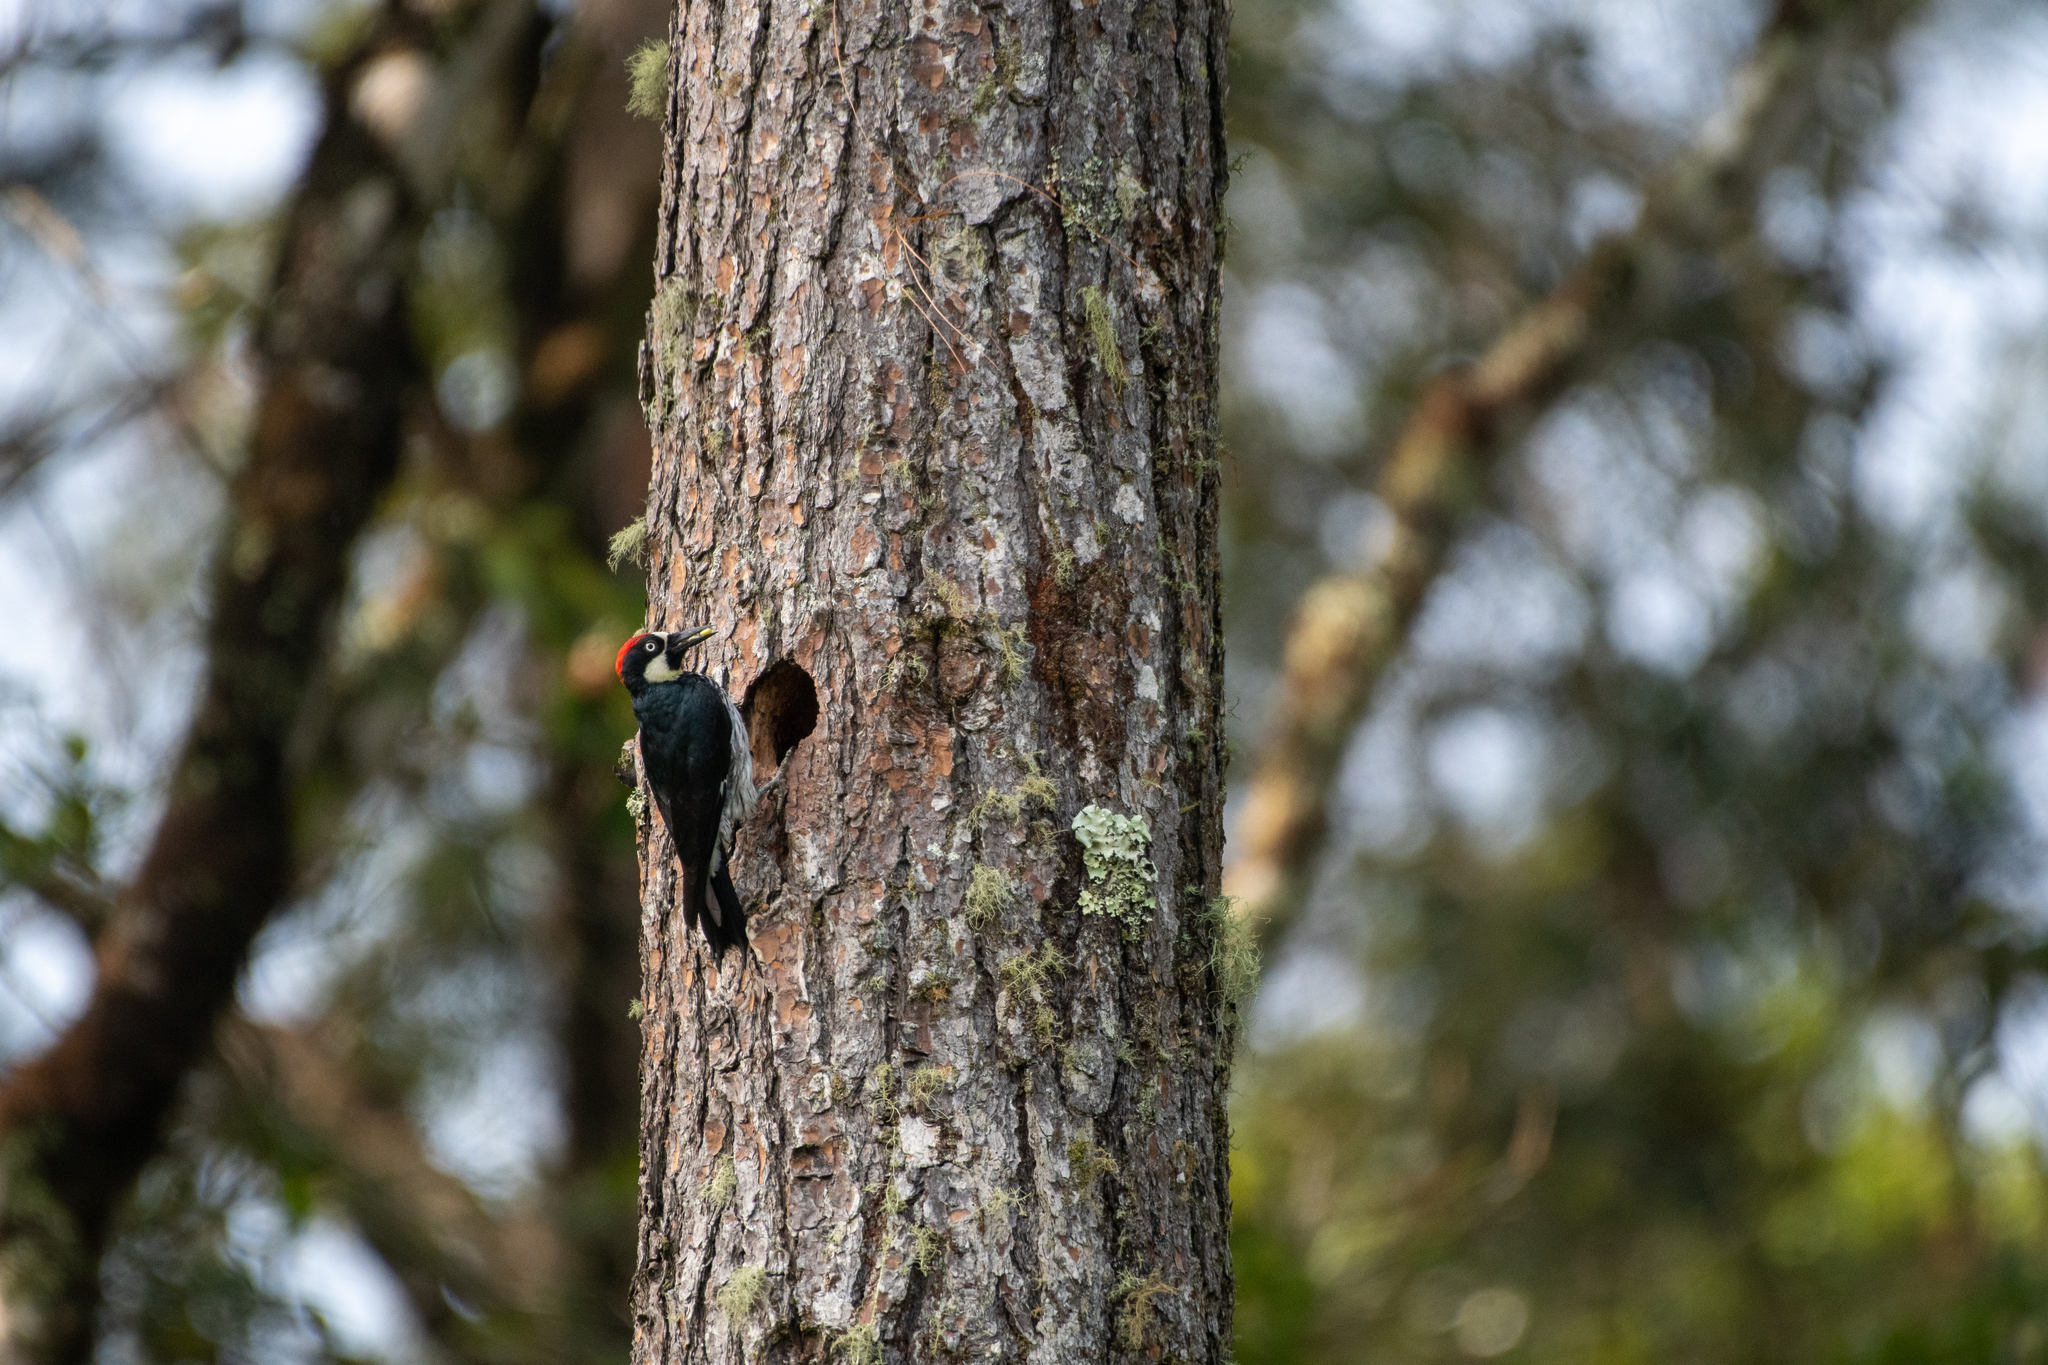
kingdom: Animalia
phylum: Chordata
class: Aves
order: Piciformes
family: Picidae
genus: Melanerpes
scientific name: Melanerpes formicivorus
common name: Acorn woodpecker
